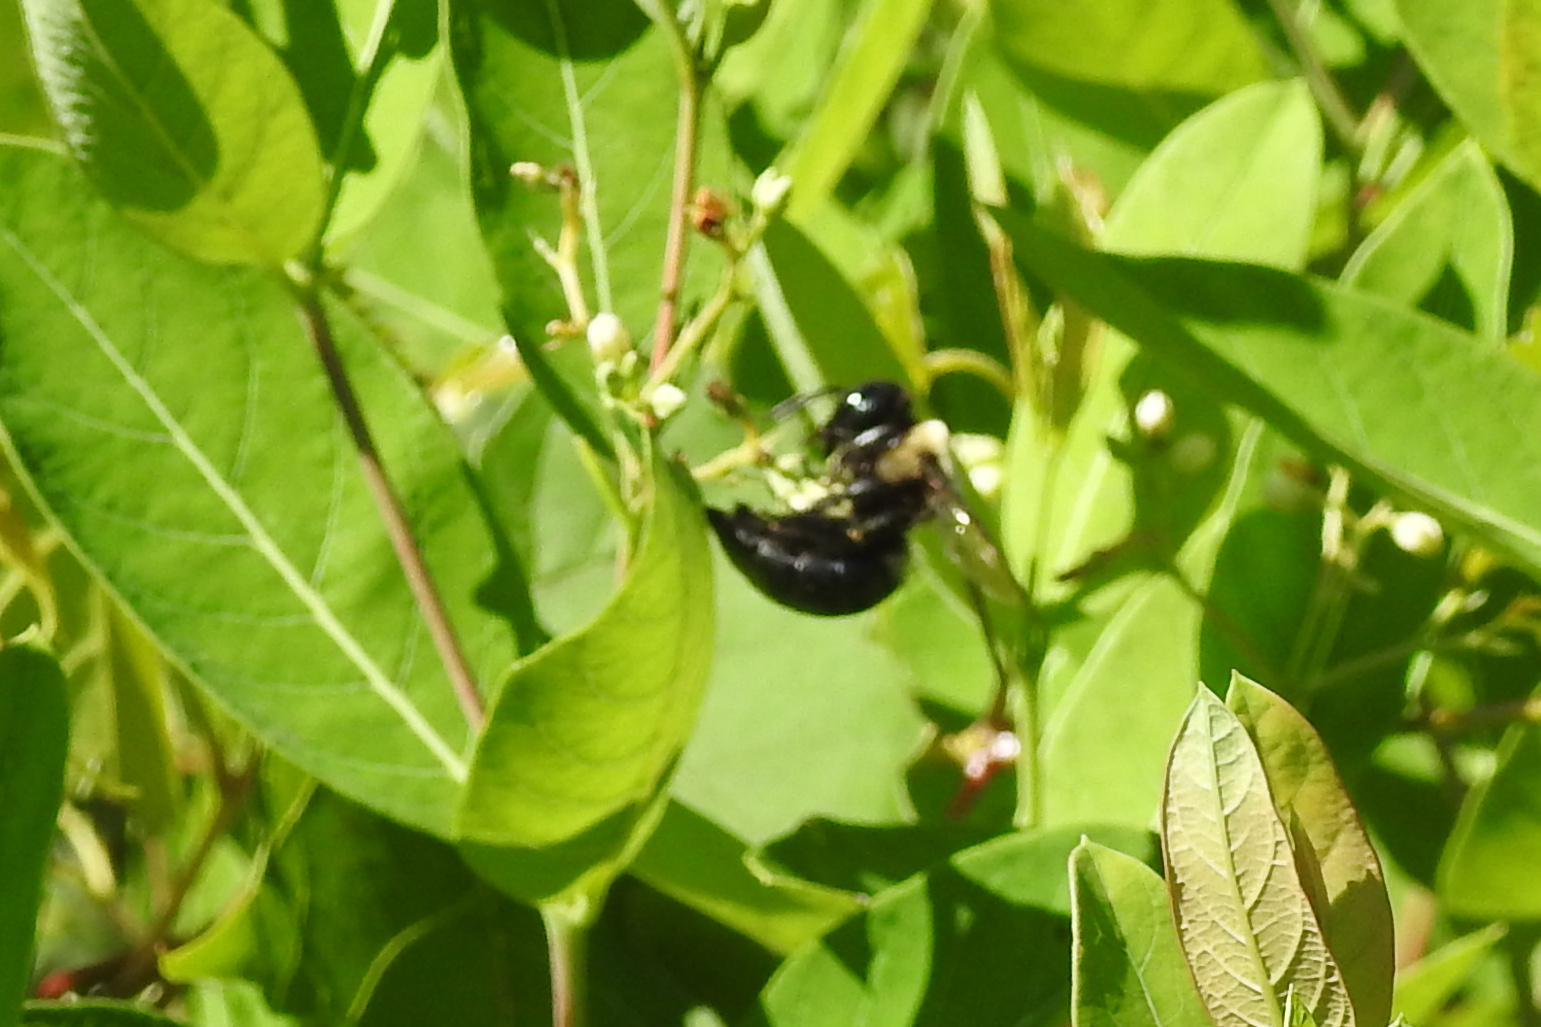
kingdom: Animalia
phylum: Arthropoda
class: Insecta
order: Hymenoptera
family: Apidae
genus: Xylocopa
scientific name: Xylocopa virginica
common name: Carpenter bee
